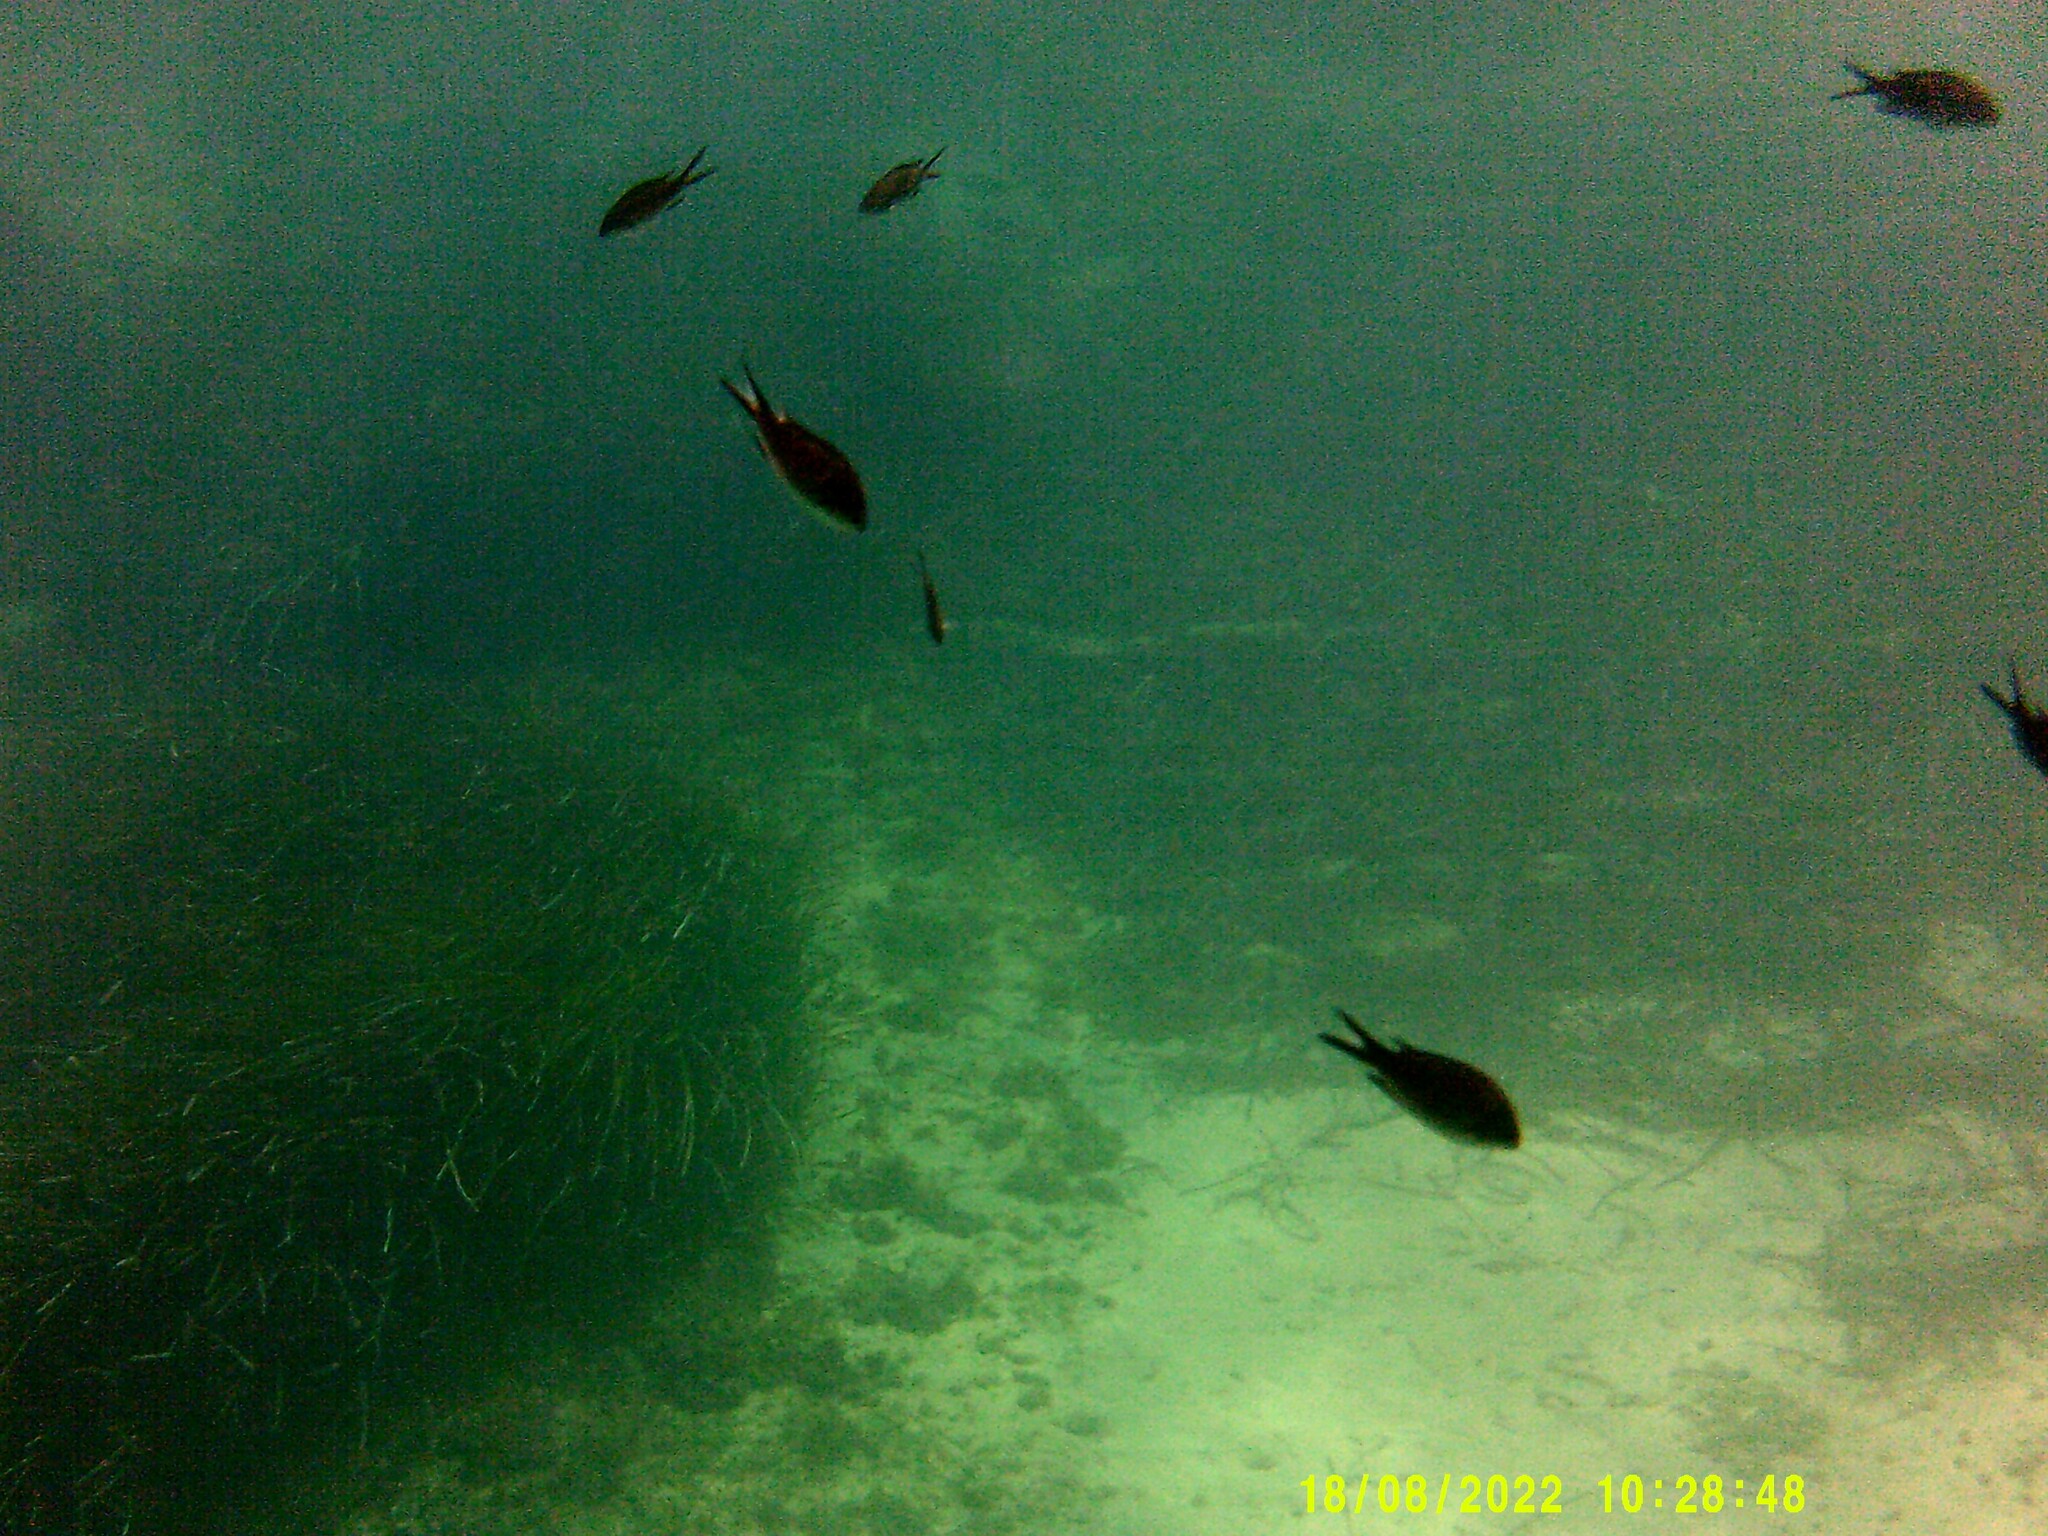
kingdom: Animalia
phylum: Chordata
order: Perciformes
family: Pomacentridae
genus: Chromis
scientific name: Chromis chromis
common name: Damselfish
